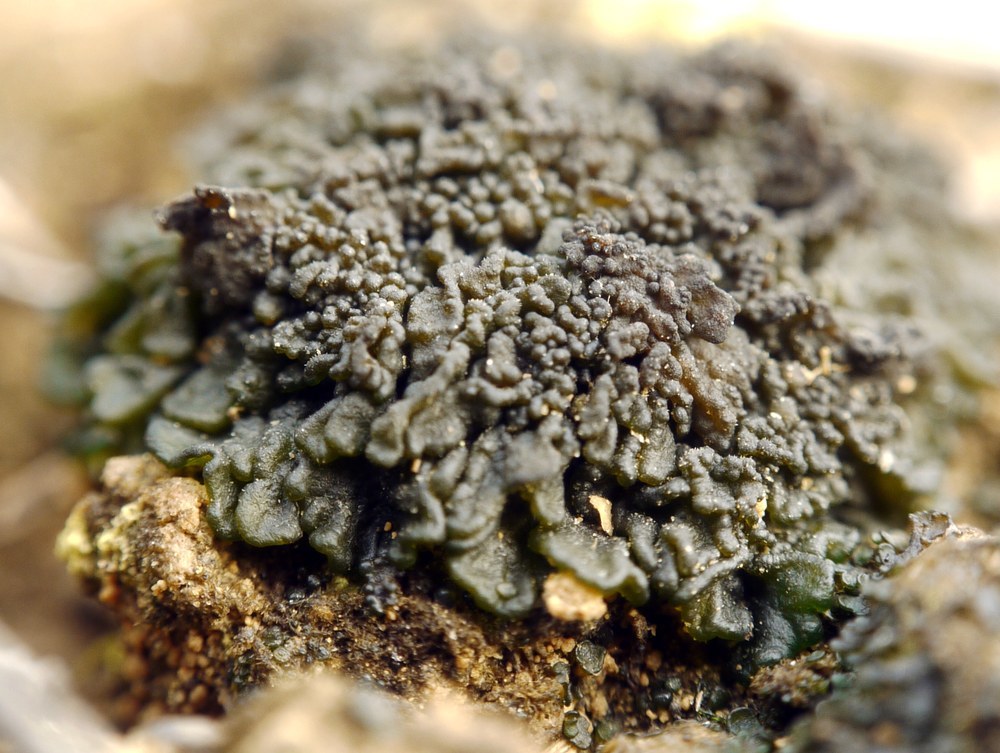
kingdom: Fungi
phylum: Ascomycota
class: Lecanoromycetes
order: Peltigerales
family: Collemataceae
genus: Enchylium
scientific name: Enchylium tenax
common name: Jelly lichen
